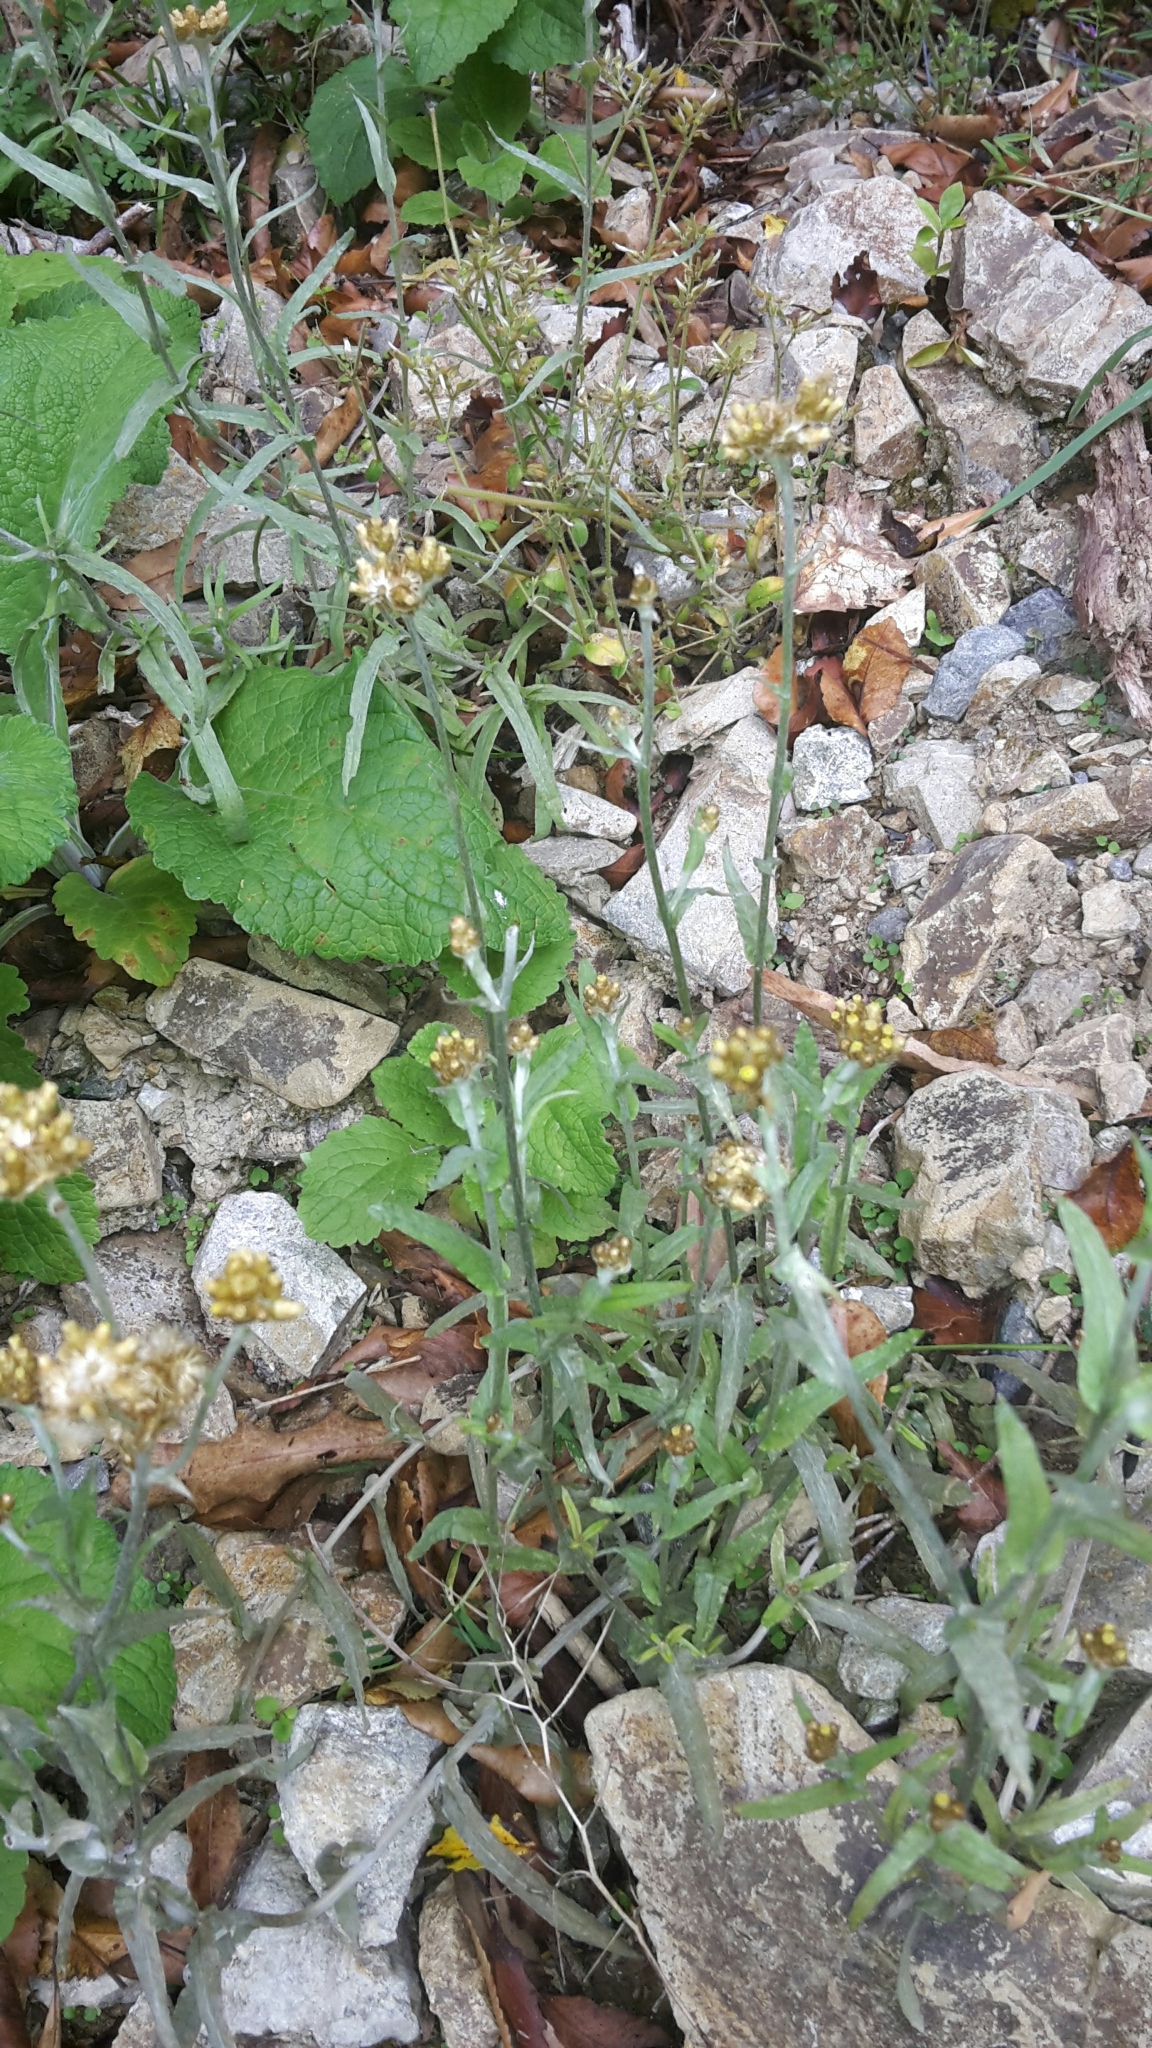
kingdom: Plantae
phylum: Tracheophyta
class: Magnoliopsida
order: Asterales
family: Asteraceae
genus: Helichrysum
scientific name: Helichrysum luteoalbum
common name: Daisy
